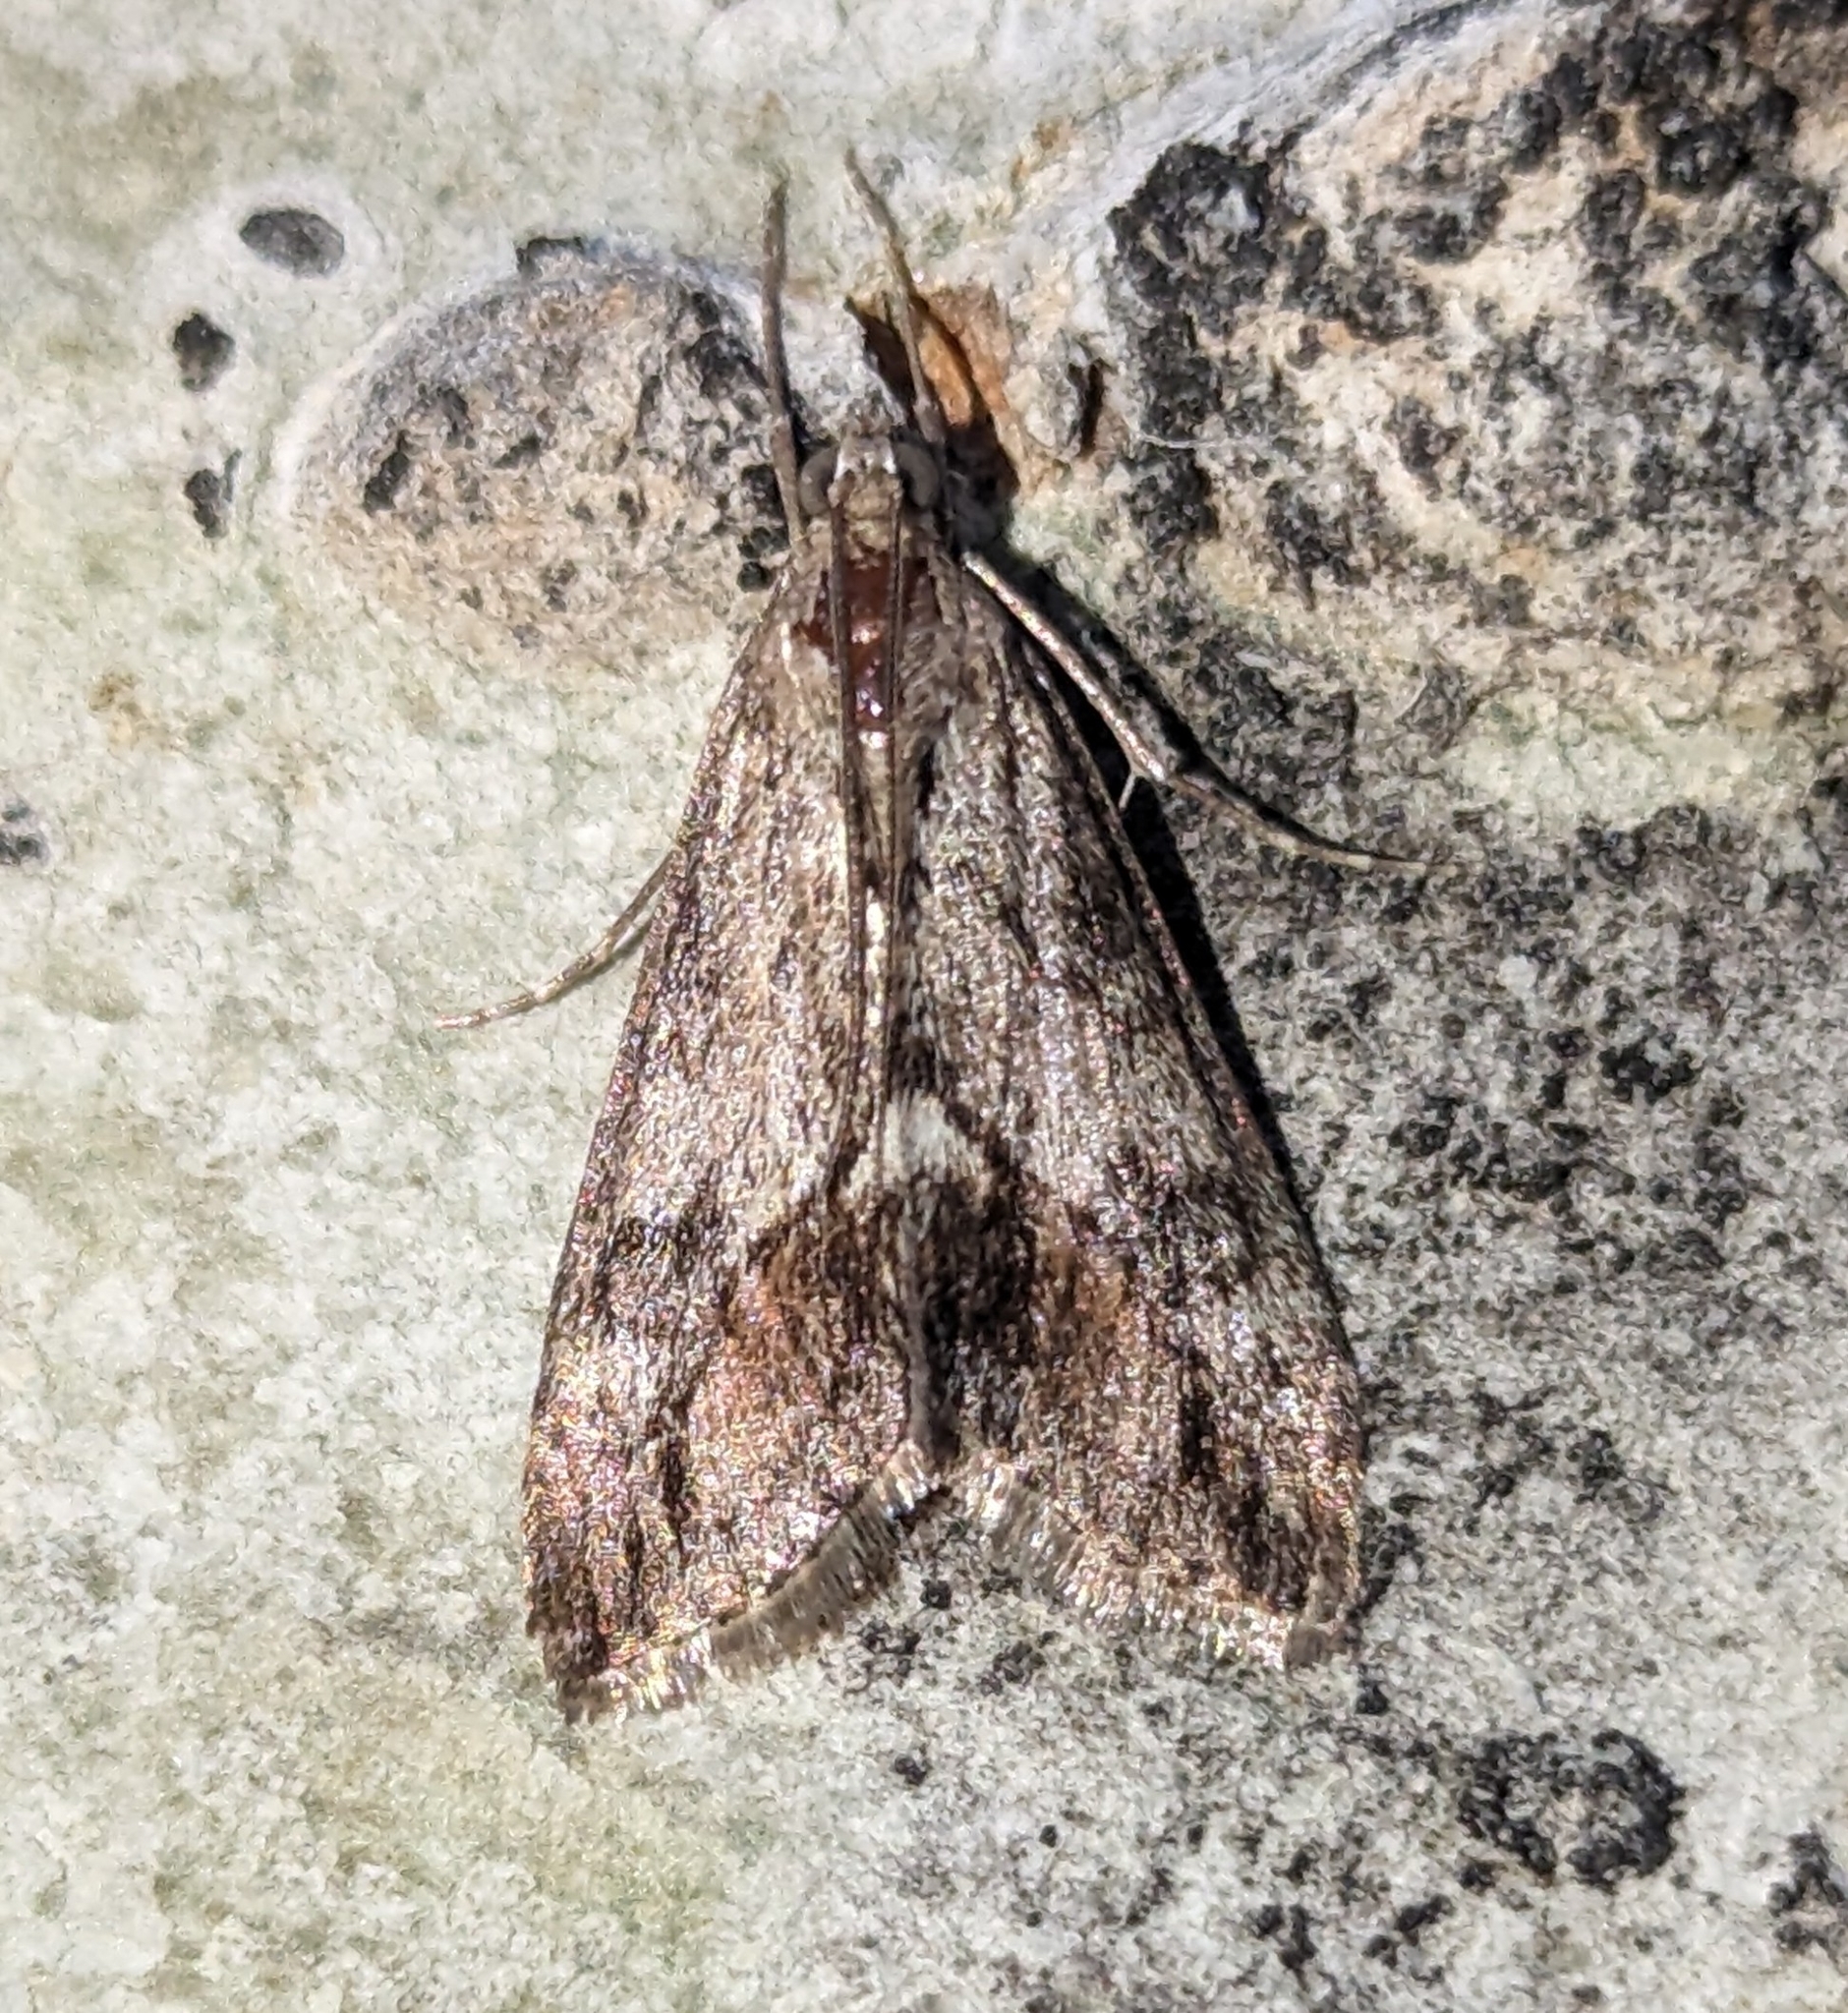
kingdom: Animalia
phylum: Arthropoda
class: Insecta
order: Lepidoptera
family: Crambidae
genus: Evergestis
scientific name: Evergestis subterminalis
